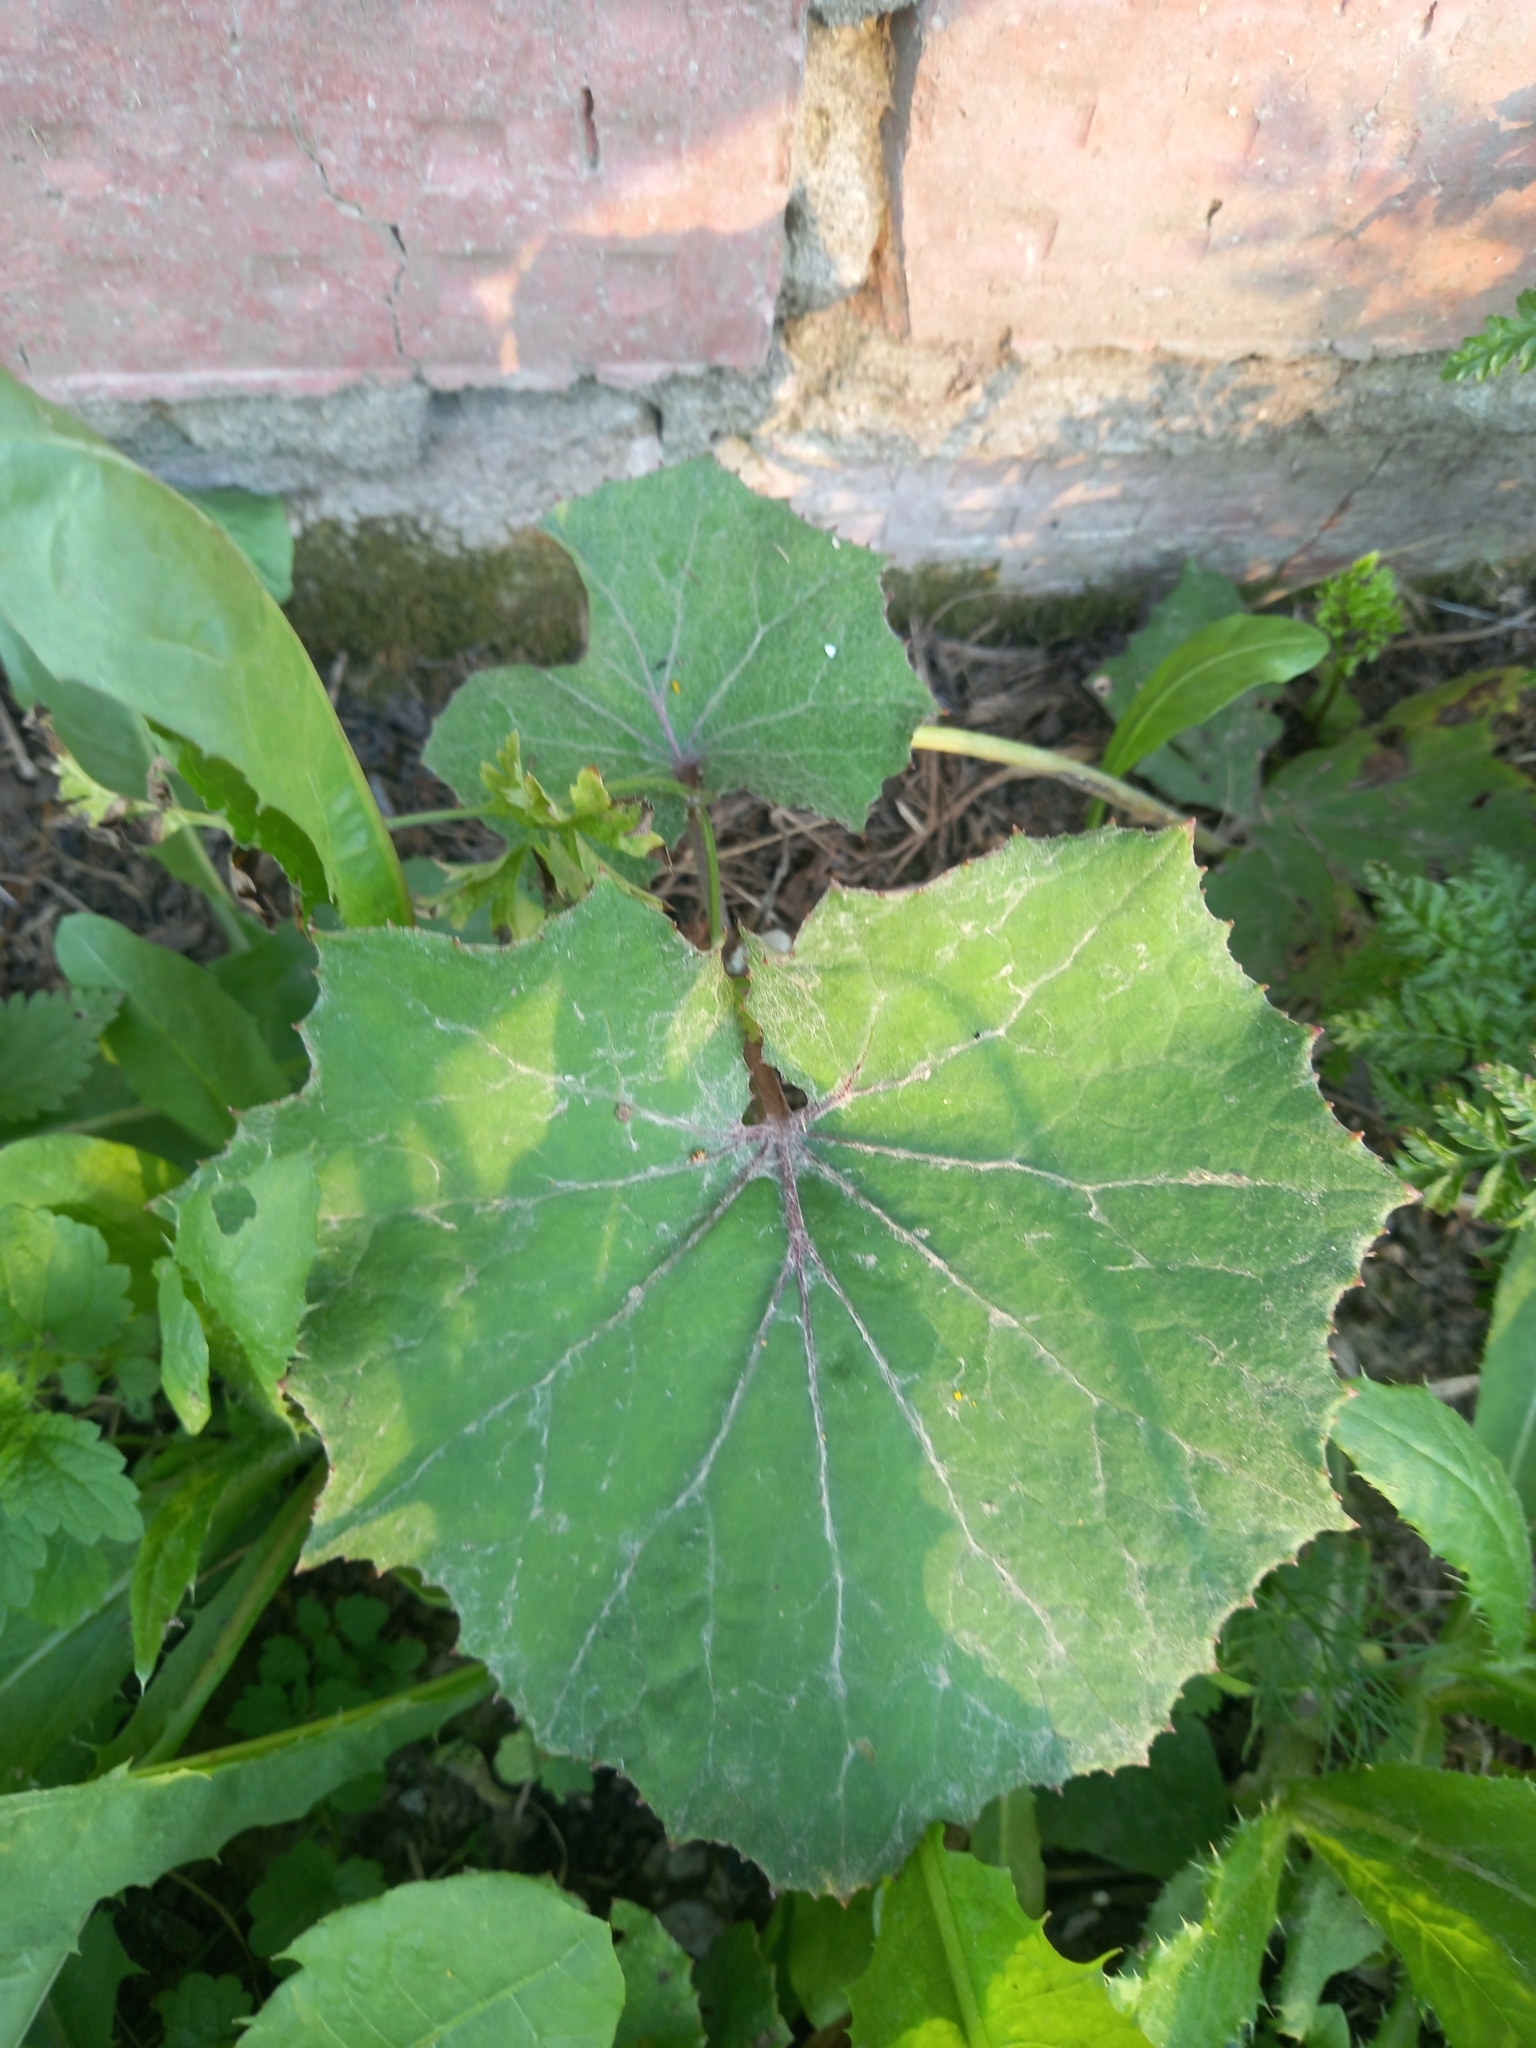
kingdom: Plantae
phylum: Tracheophyta
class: Magnoliopsida
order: Asterales
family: Asteraceae
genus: Tussilago
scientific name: Tussilago farfara
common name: Coltsfoot
